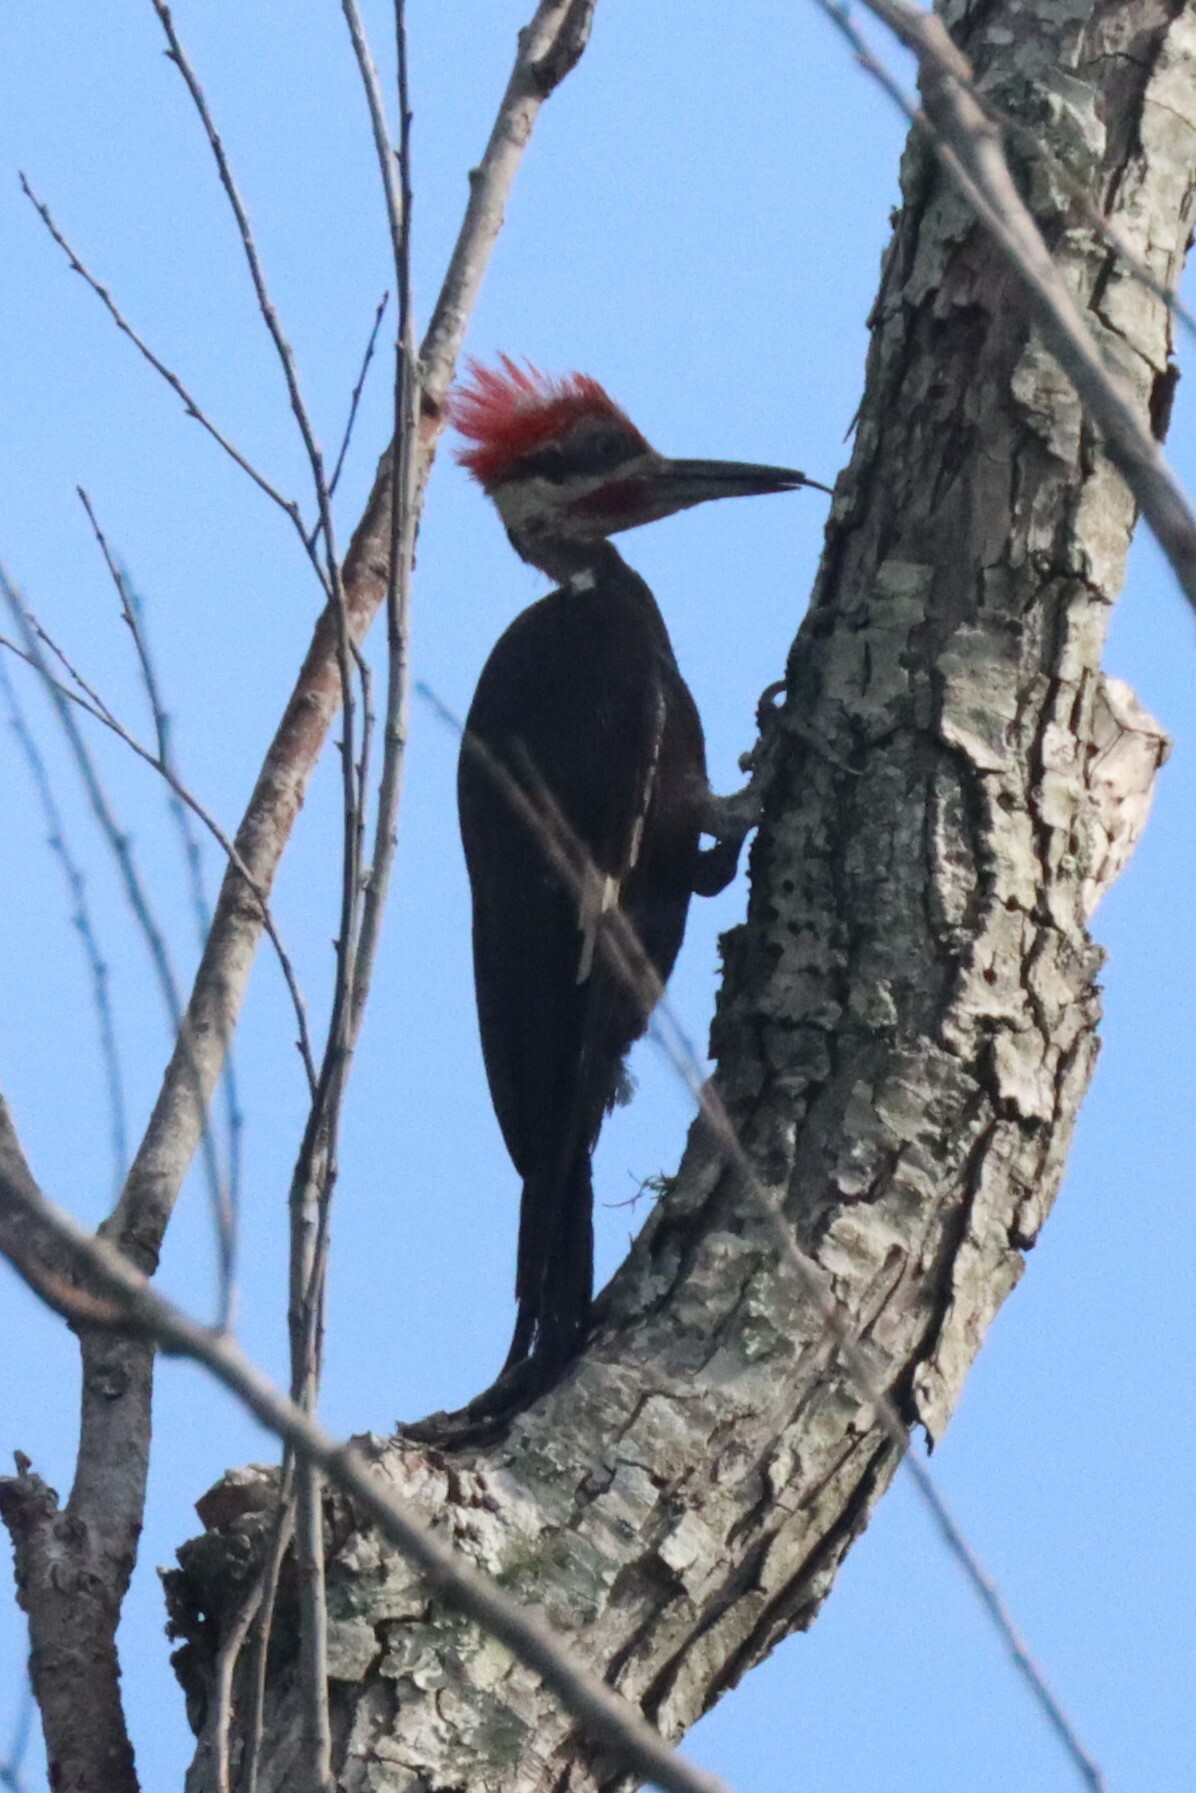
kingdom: Animalia
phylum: Chordata
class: Aves
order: Piciformes
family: Picidae
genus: Dryocopus
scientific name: Dryocopus pileatus
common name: Pileated woodpecker
